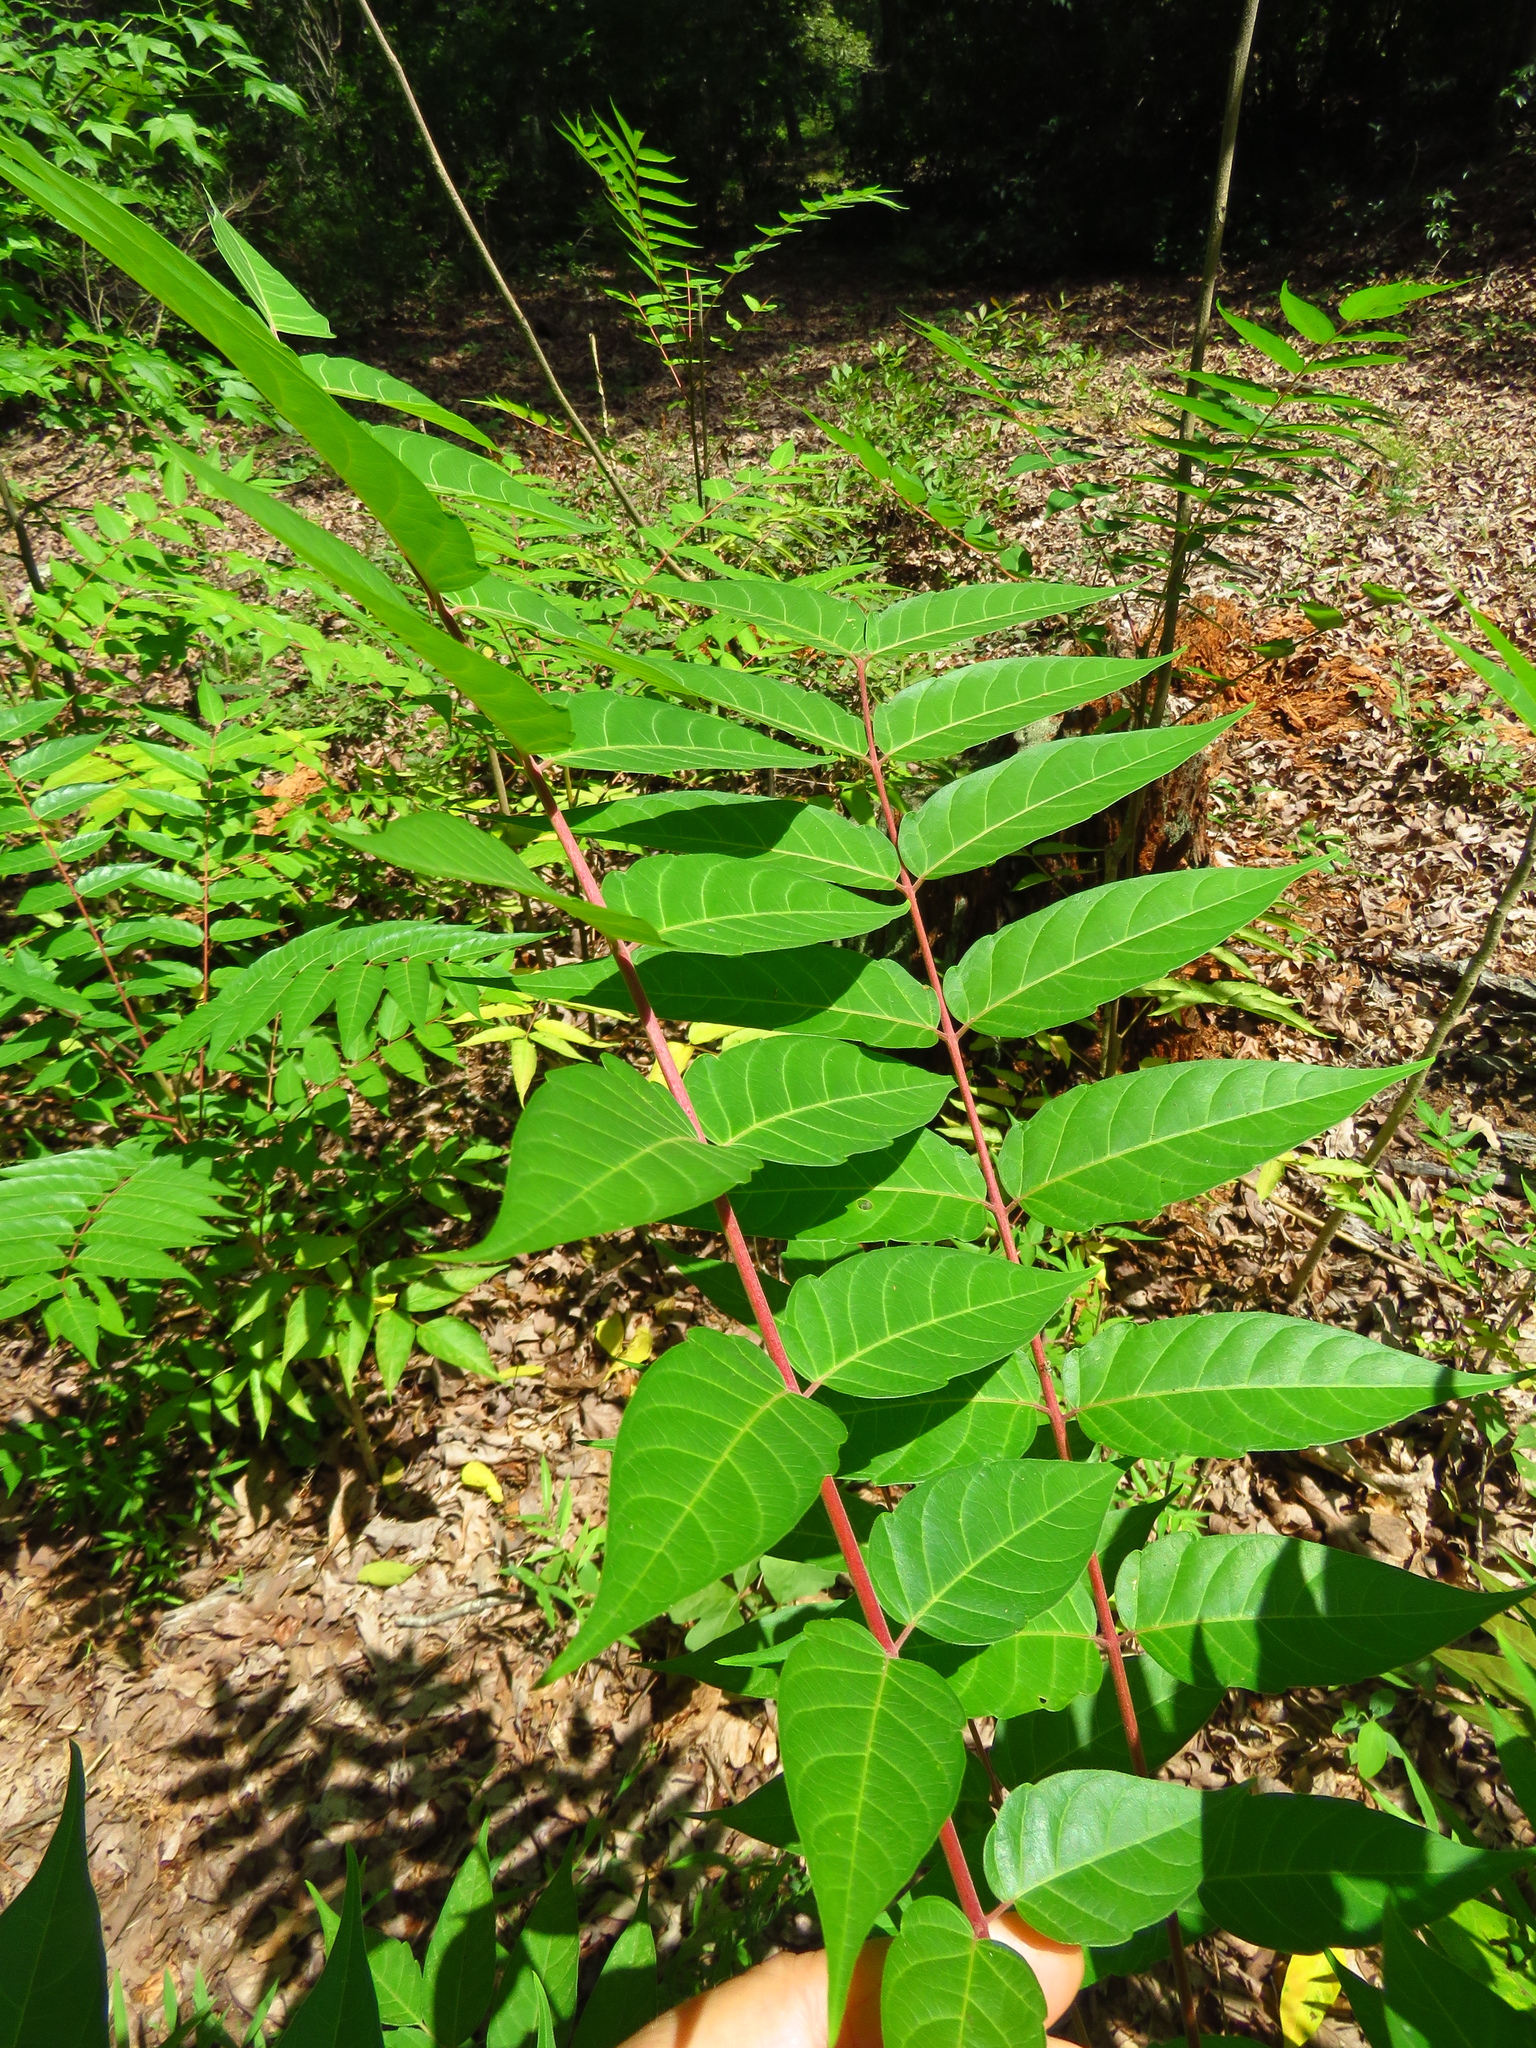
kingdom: Plantae
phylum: Tracheophyta
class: Magnoliopsida
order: Sapindales
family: Simaroubaceae
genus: Ailanthus
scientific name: Ailanthus altissima
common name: Tree-of-heaven
